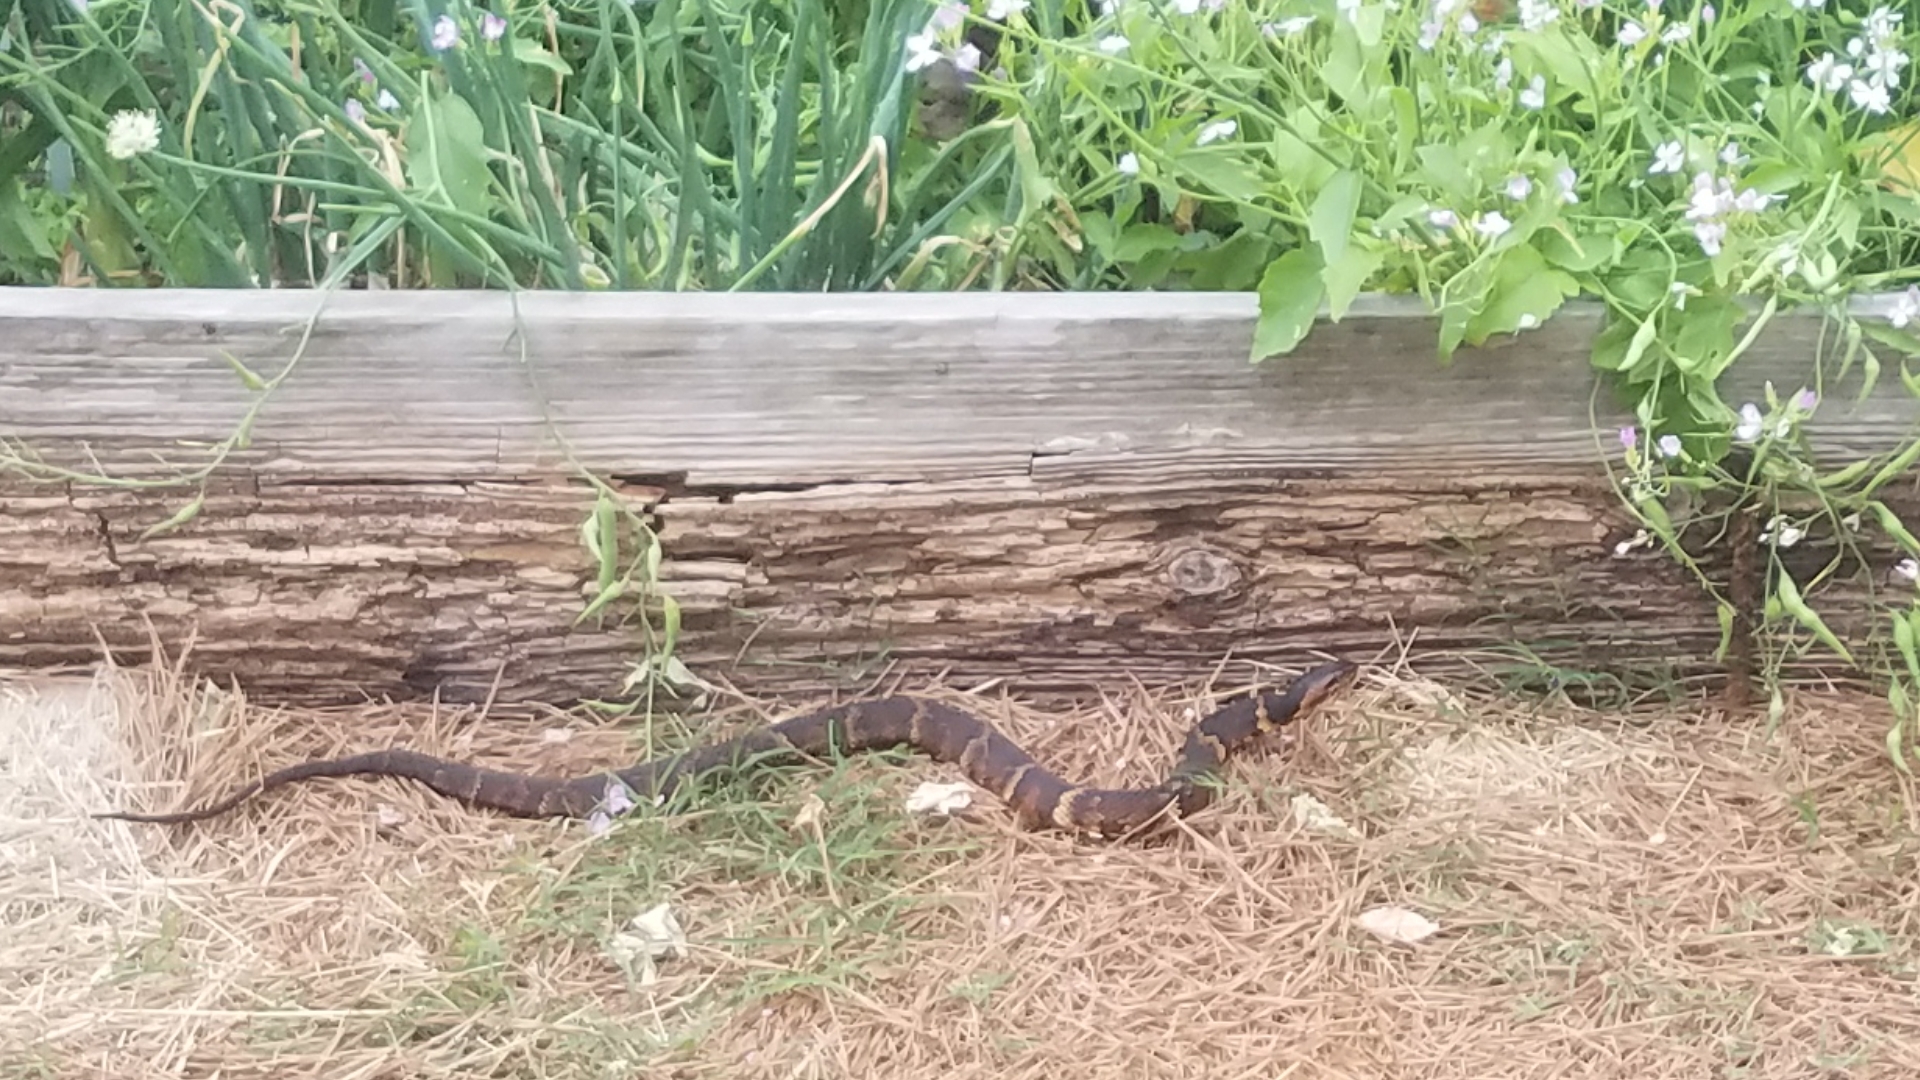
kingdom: Animalia
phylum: Chordata
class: Squamata
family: Colubridae
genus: Nerodia
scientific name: Nerodia fasciata
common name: Southern water snake
